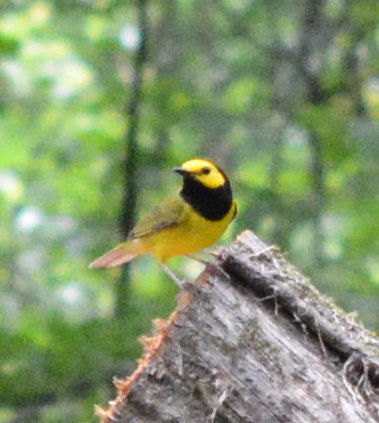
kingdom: Animalia
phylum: Chordata
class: Aves
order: Passeriformes
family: Parulidae
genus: Setophaga
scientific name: Setophaga citrina
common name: Hooded warbler
